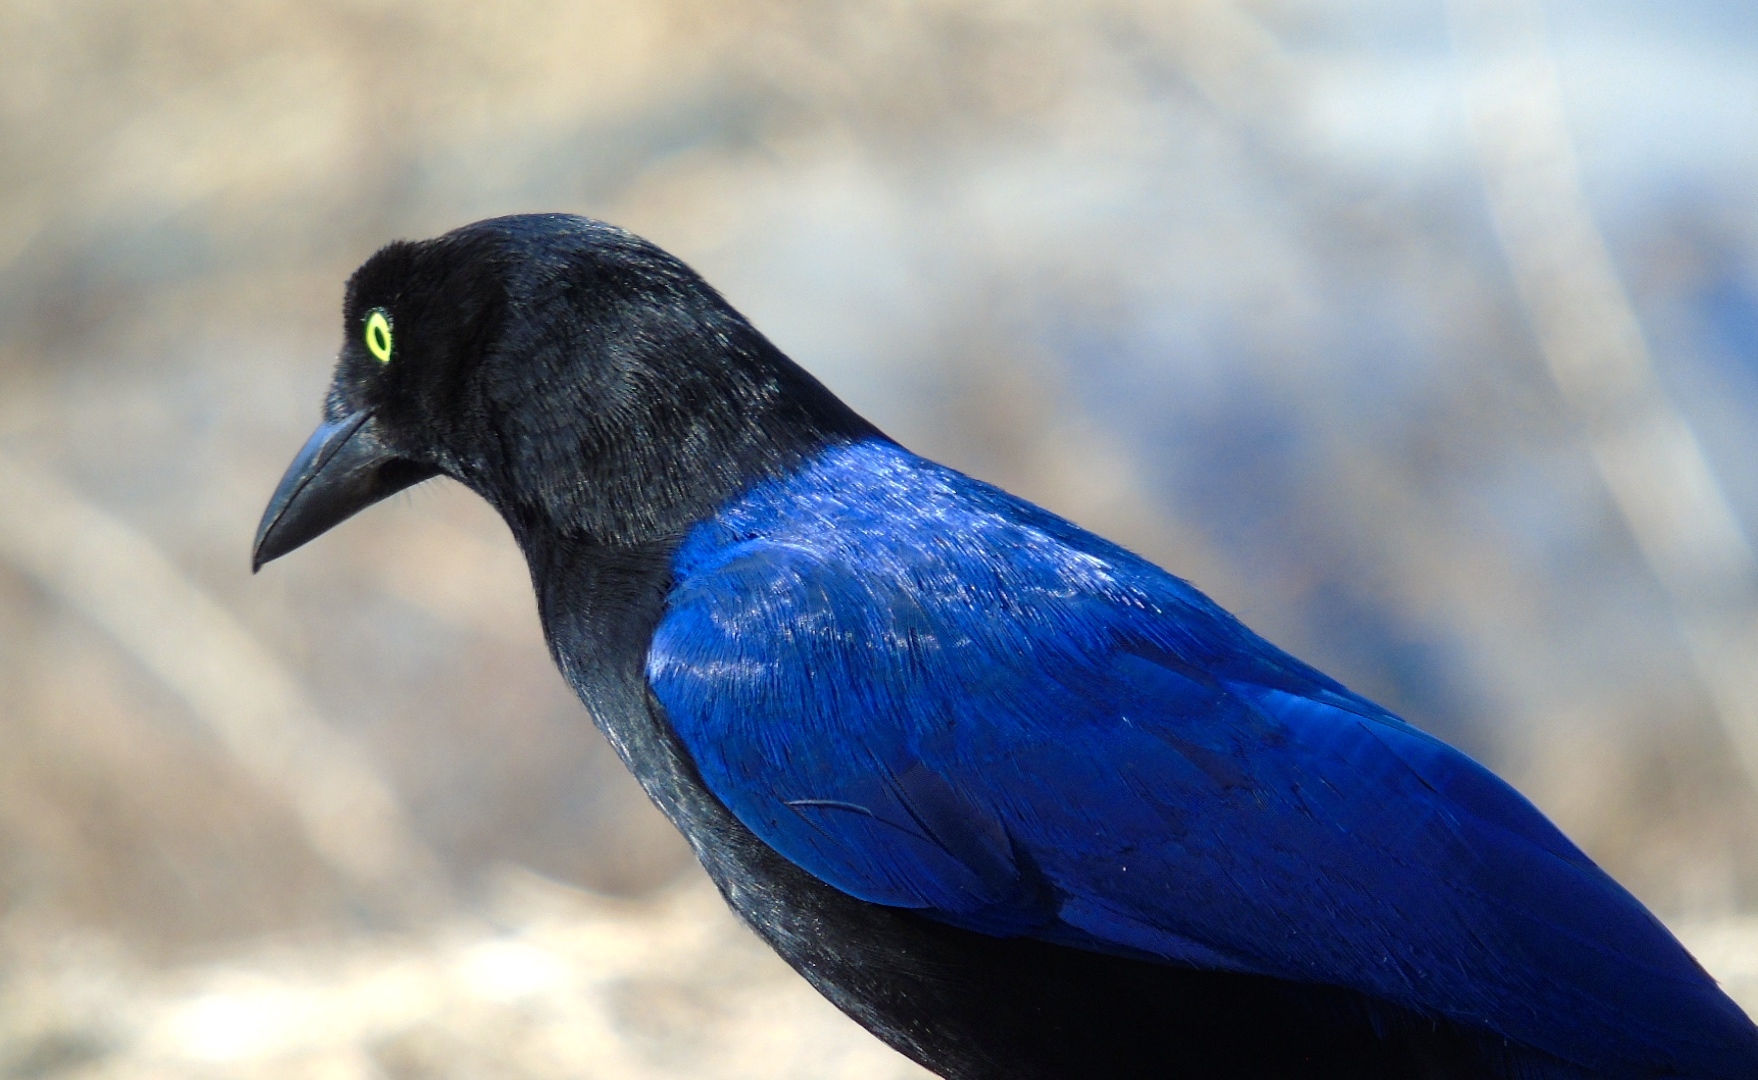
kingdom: Animalia
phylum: Chordata
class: Aves
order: Passeriformes
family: Corvidae
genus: Cyanocorax
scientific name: Cyanocorax beecheii
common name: Purplish-backed jay
